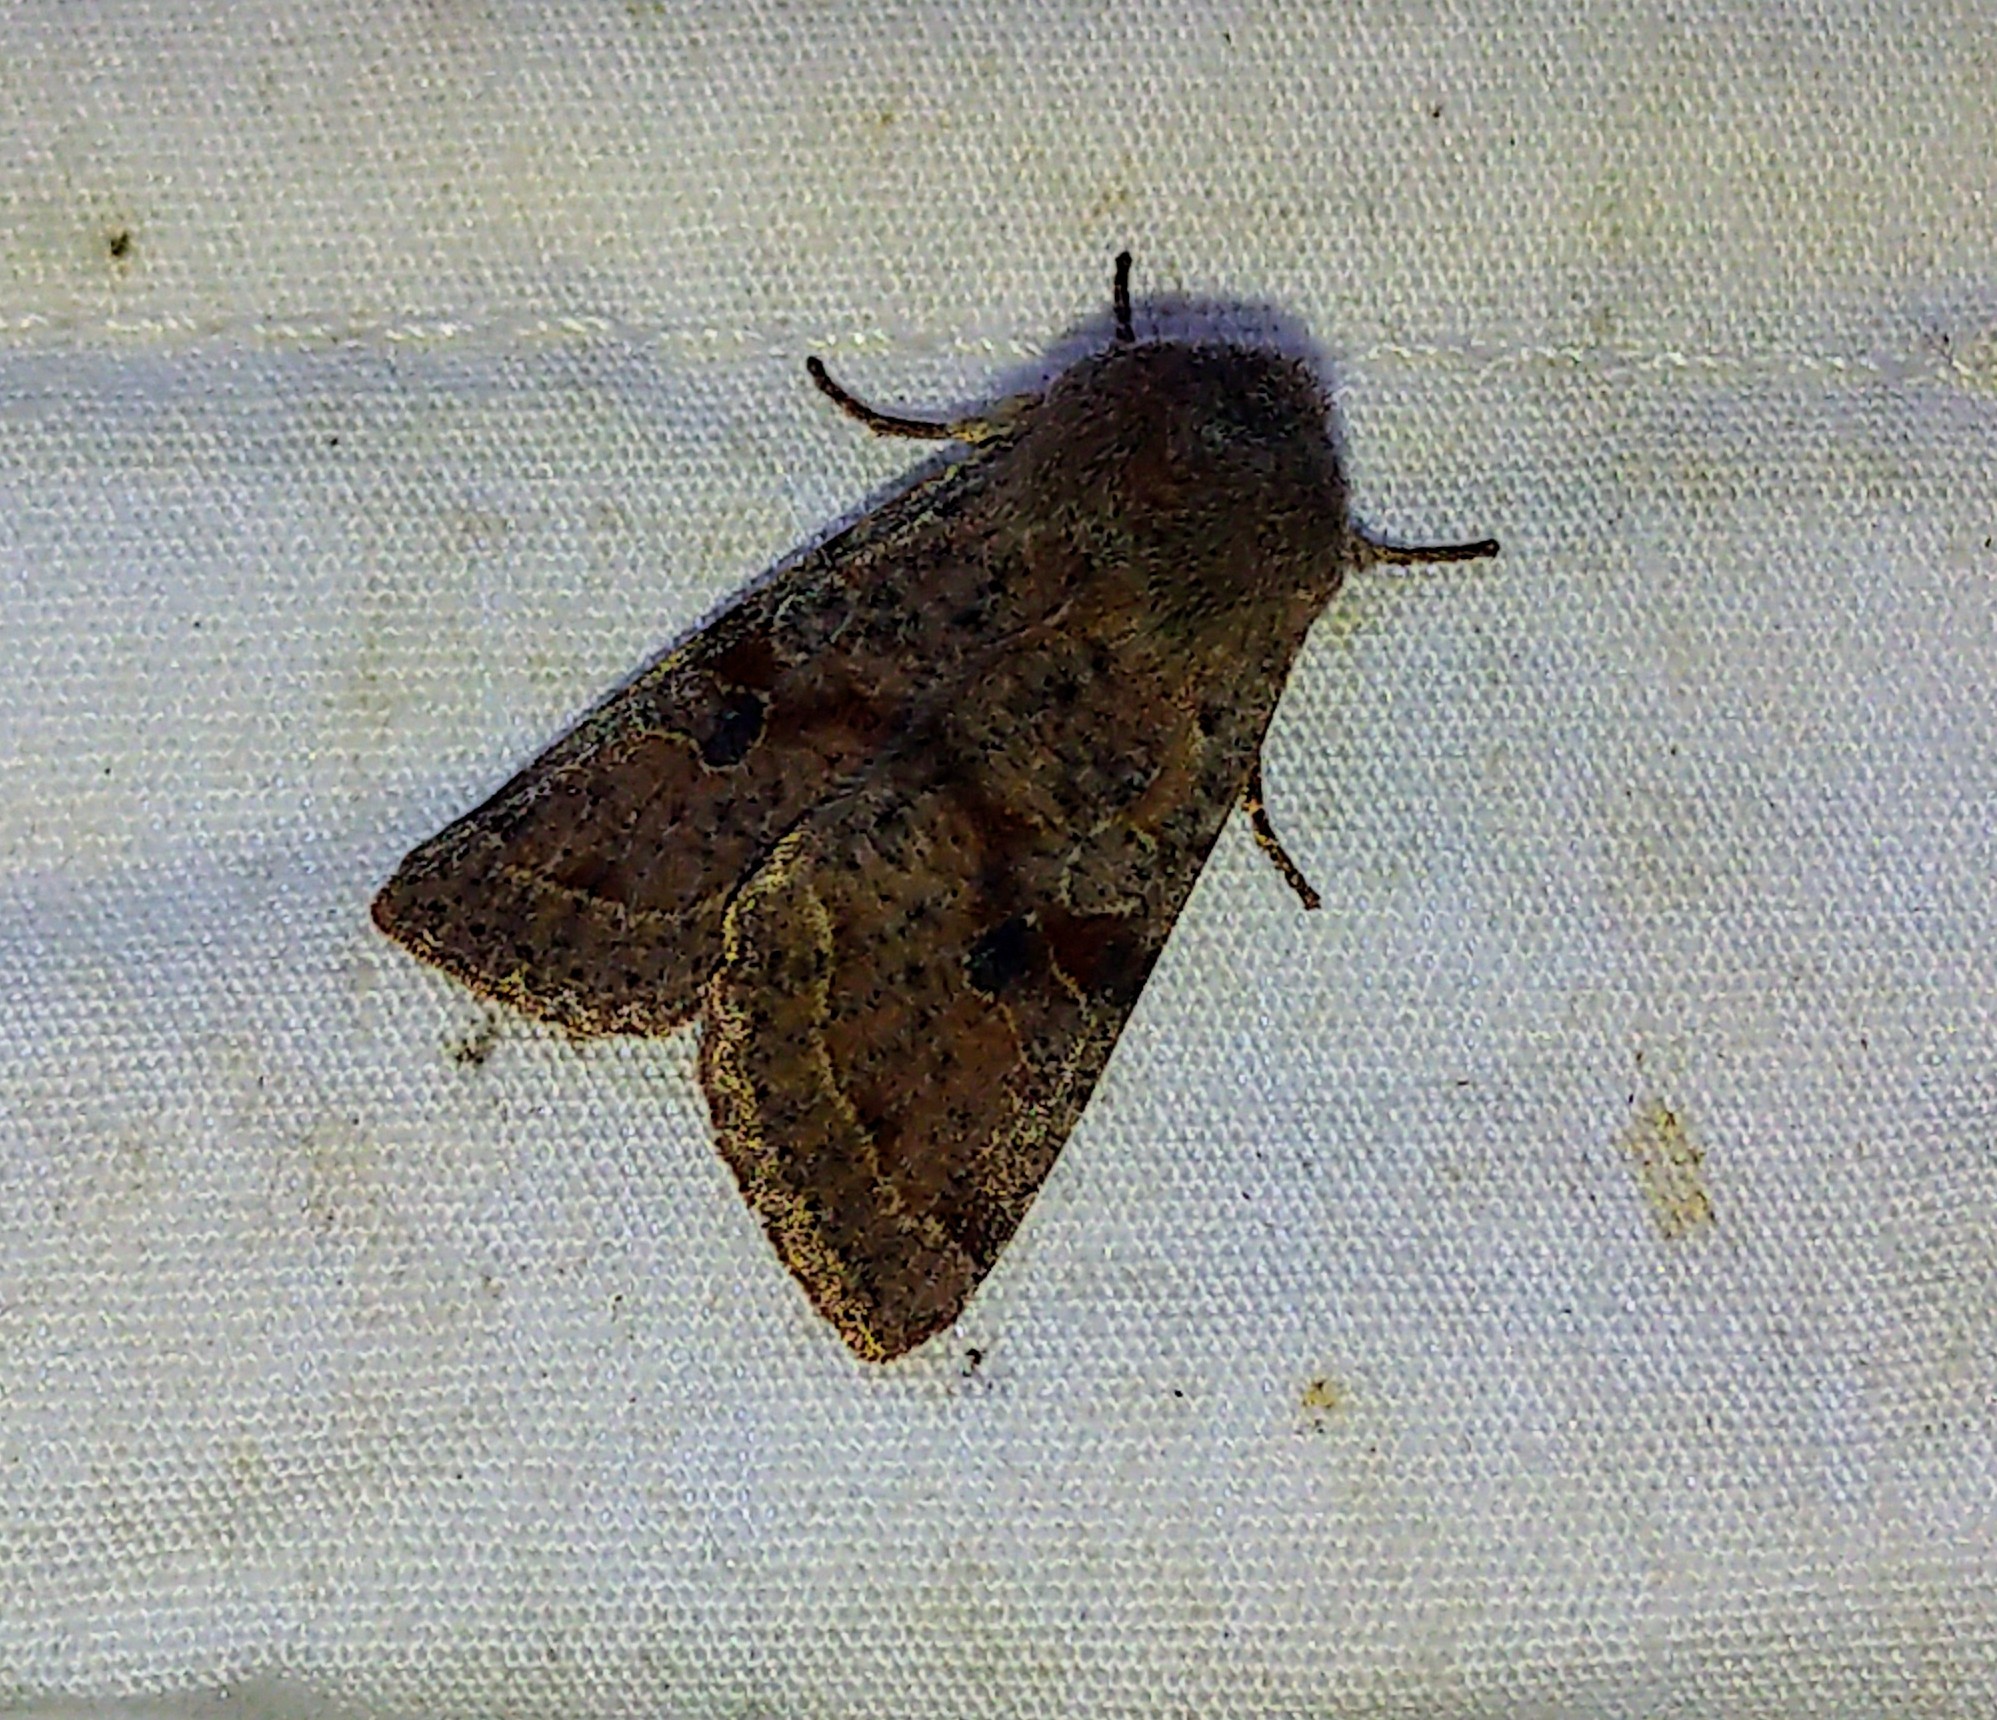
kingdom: Animalia
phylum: Arthropoda
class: Insecta
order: Lepidoptera
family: Noctuidae
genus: Orthosia
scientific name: Orthosia hibisci
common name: Green fruitworm
